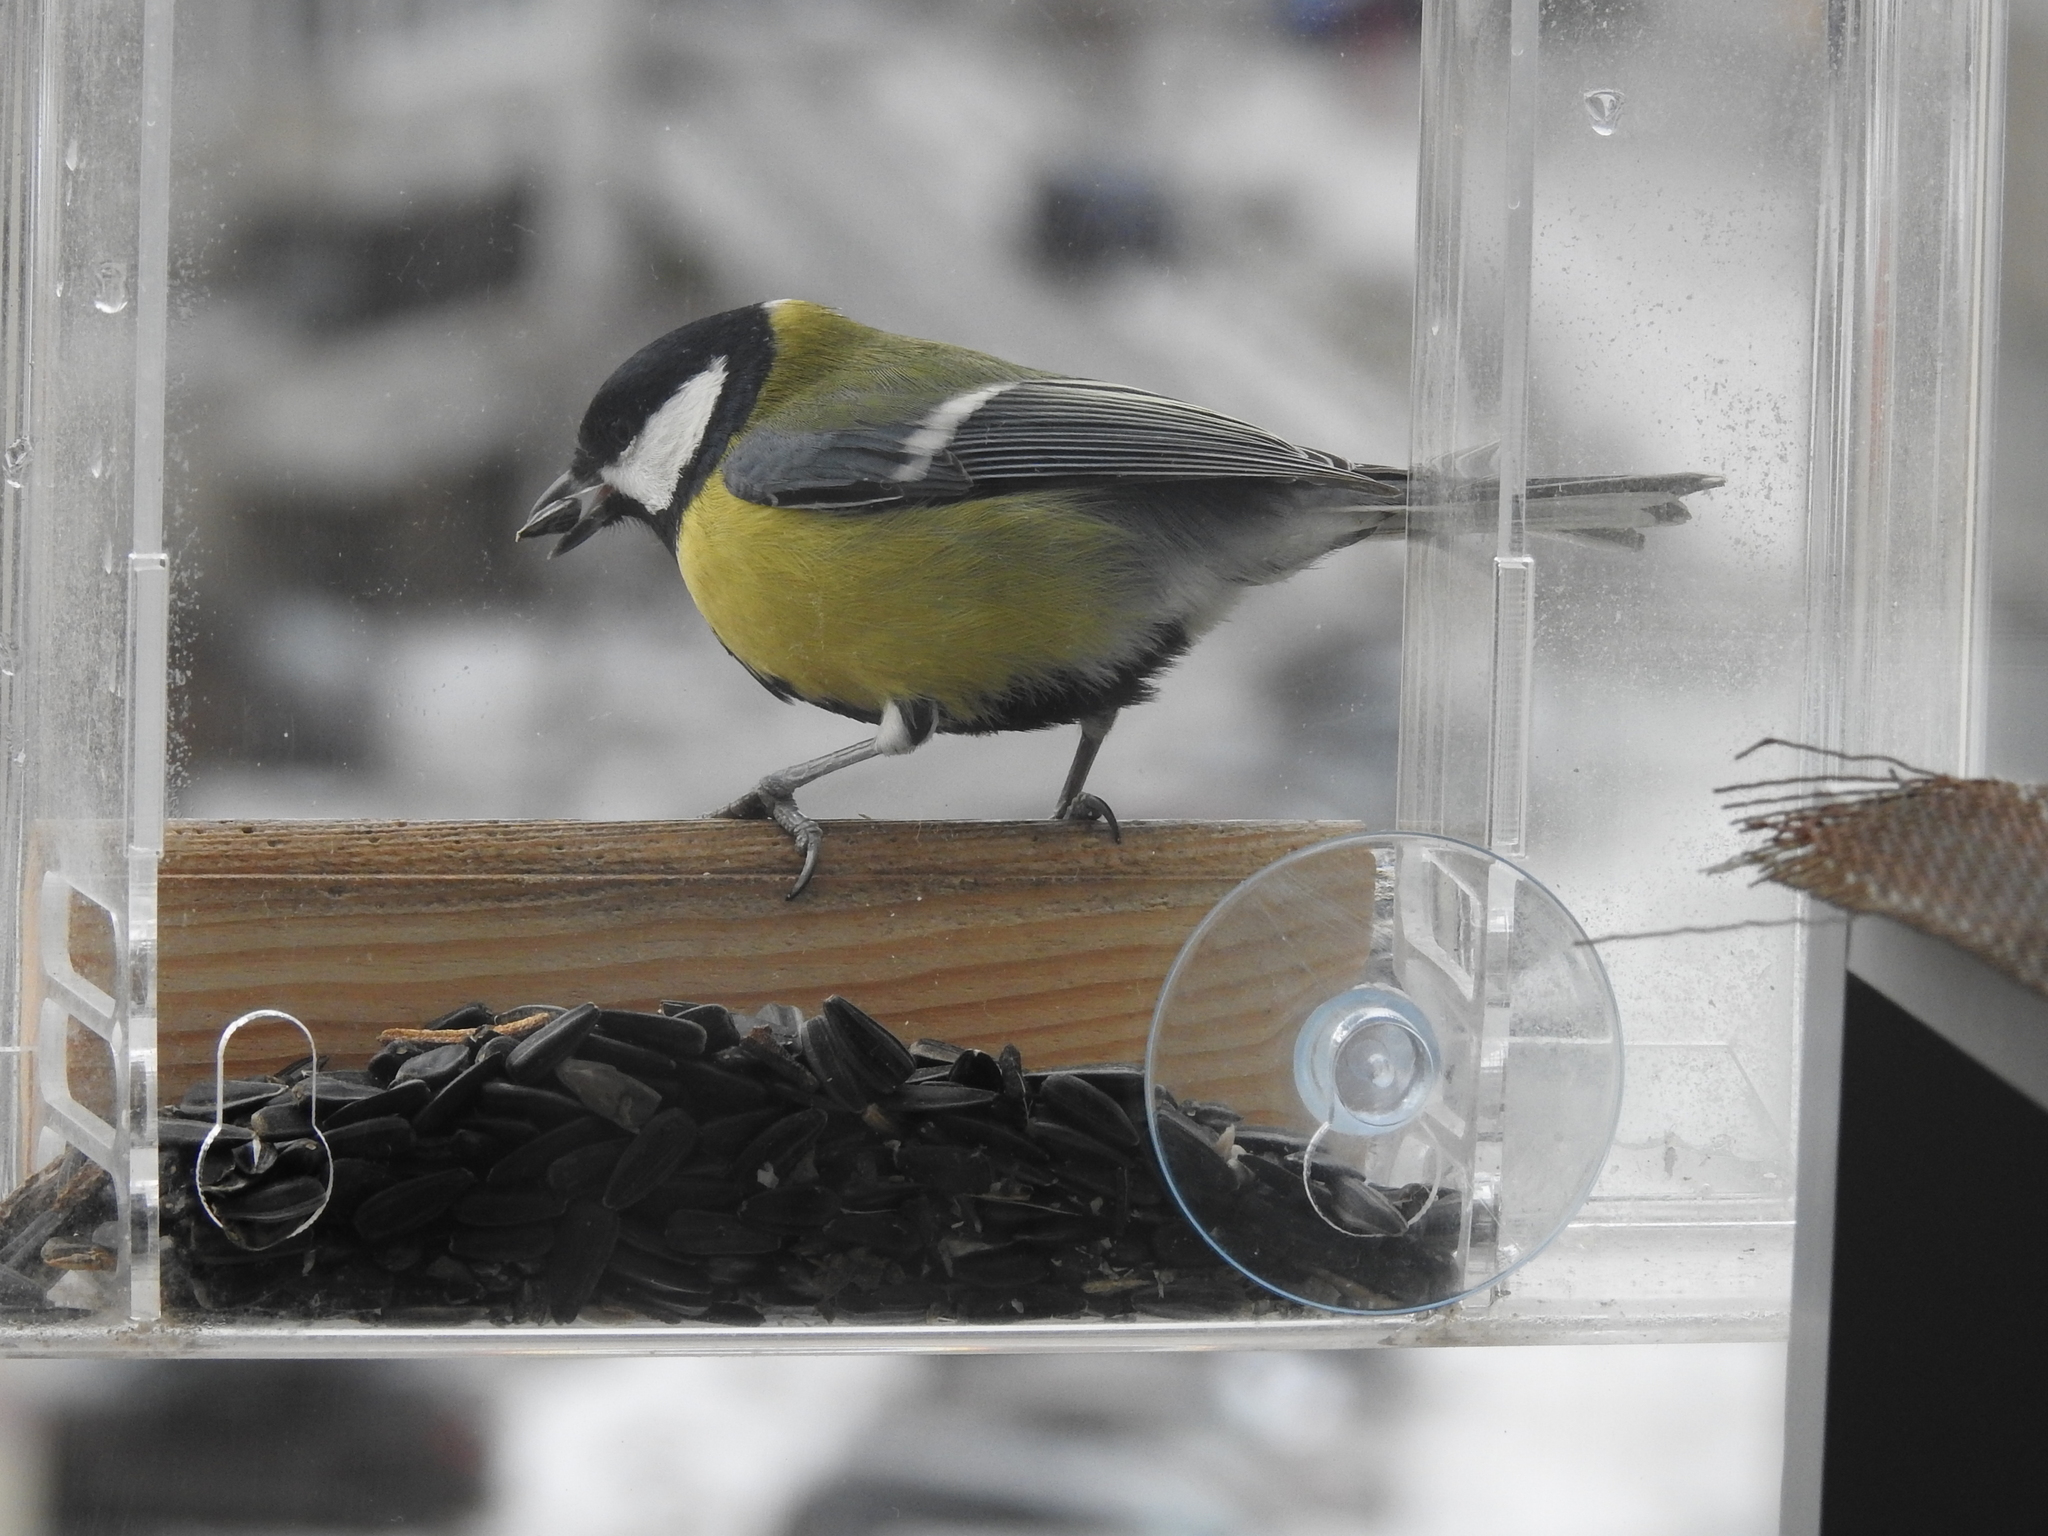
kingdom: Animalia
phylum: Chordata
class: Aves
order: Passeriformes
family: Paridae
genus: Parus
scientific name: Parus major
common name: Great tit
